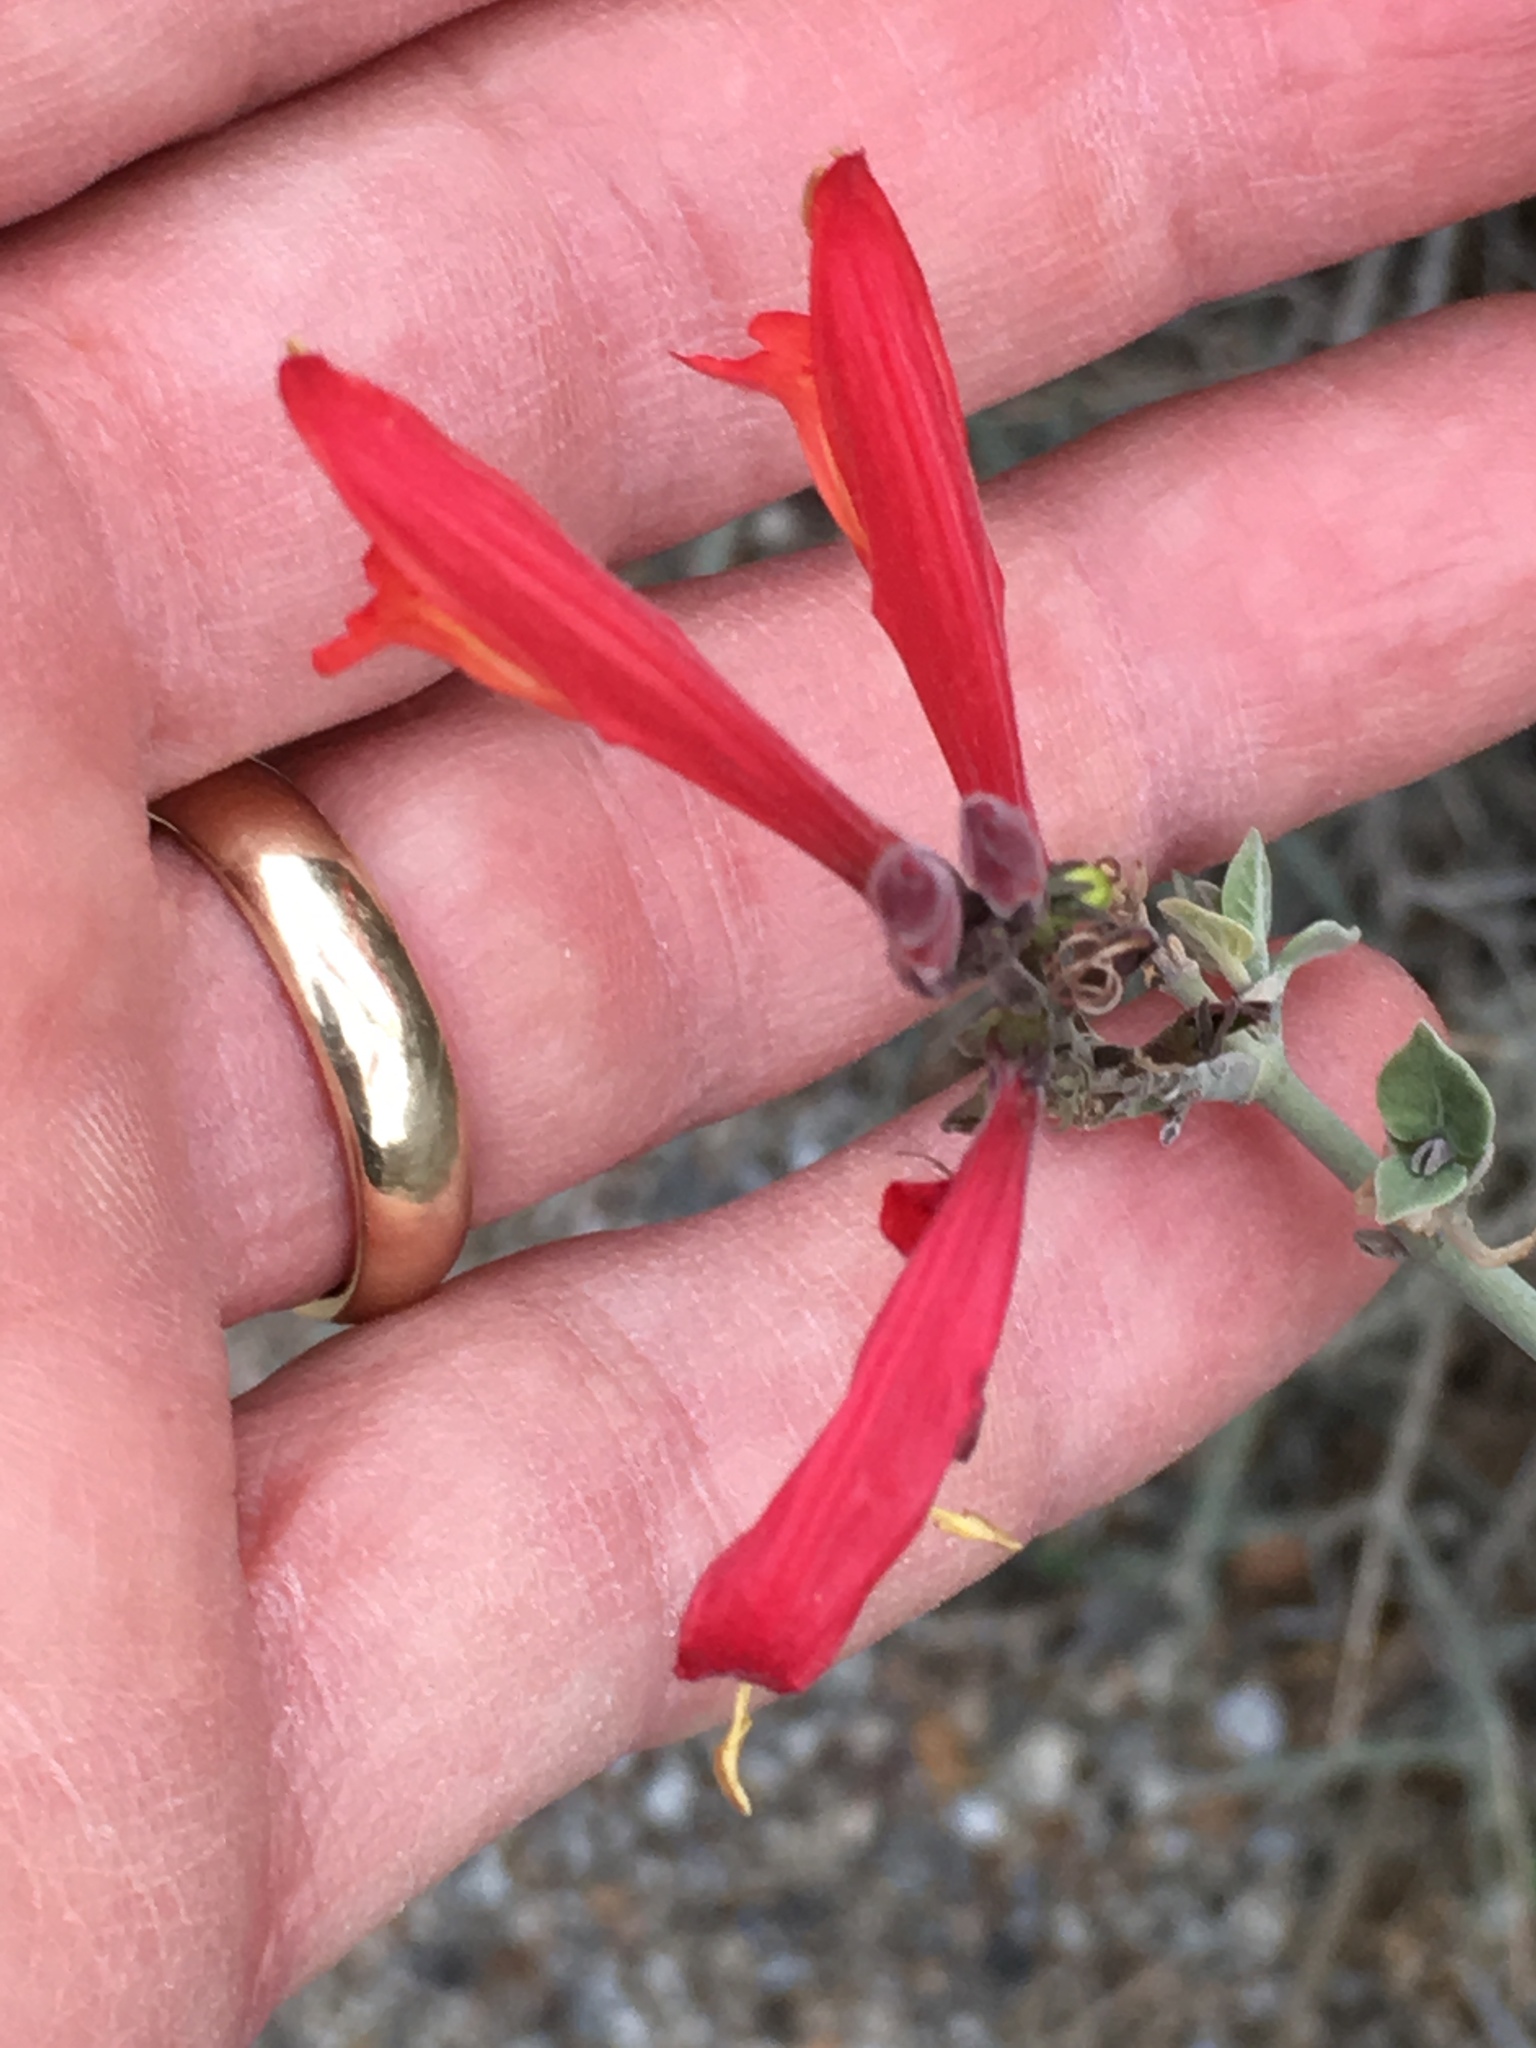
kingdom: Plantae
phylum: Tracheophyta
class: Magnoliopsida
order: Lamiales
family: Acanthaceae
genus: Justicia
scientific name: Justicia californica
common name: Chuparosa-honeysuckle
